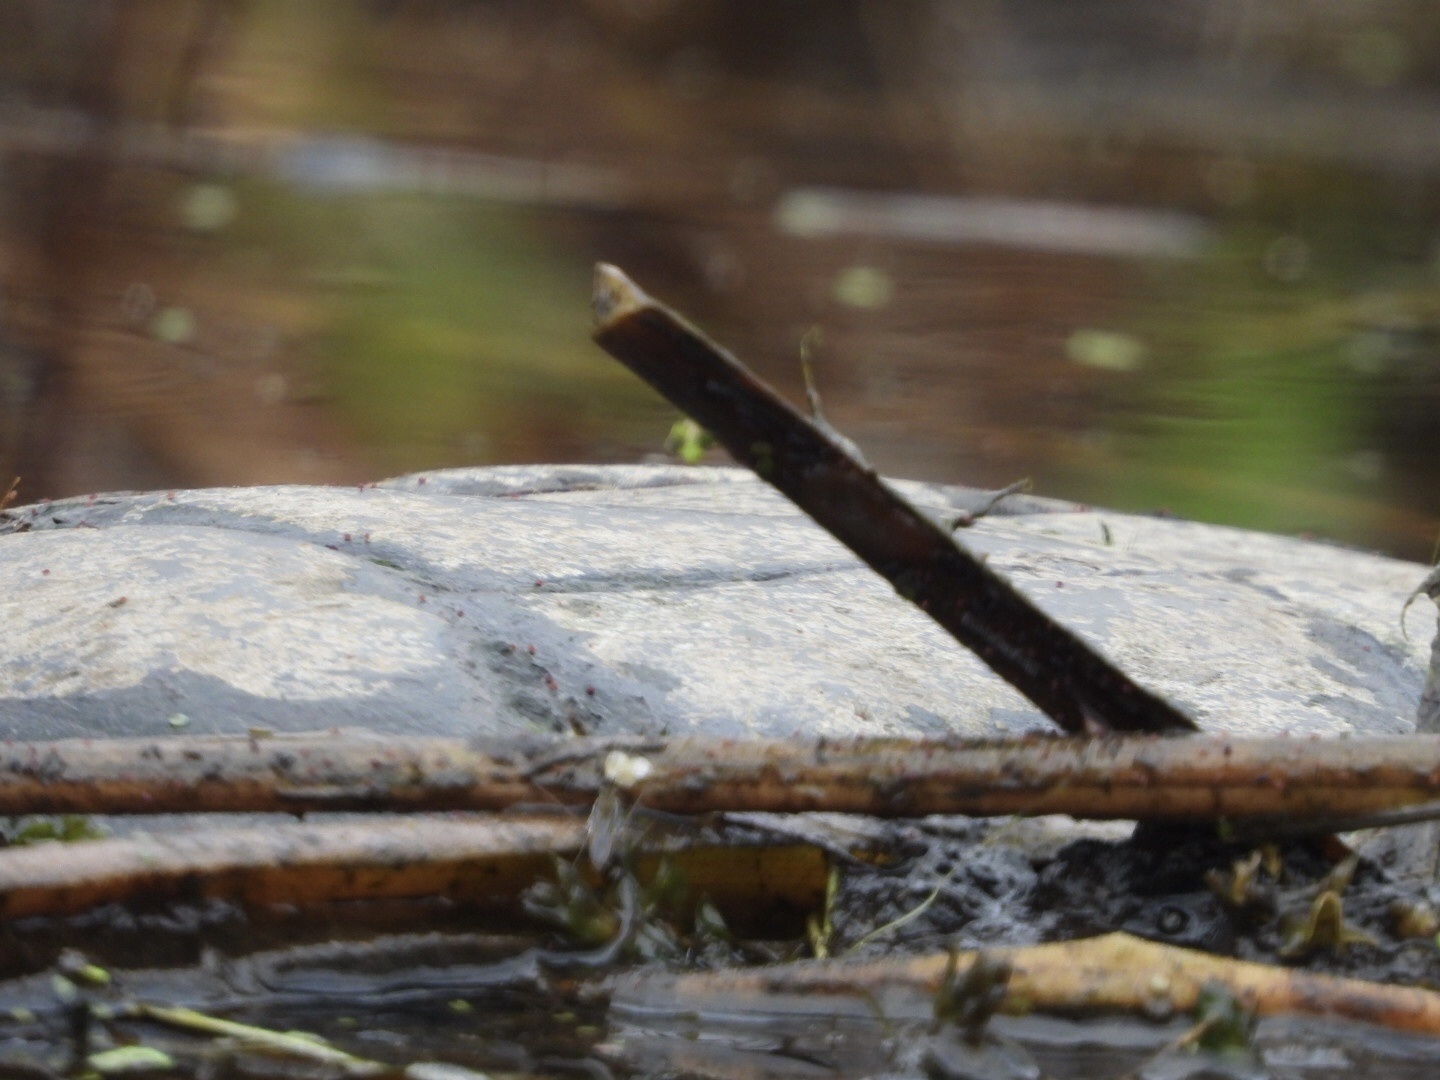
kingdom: Animalia
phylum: Chordata
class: Testudines
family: Chelydridae
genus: Chelydra
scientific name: Chelydra serpentina
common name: Common snapping turtle
